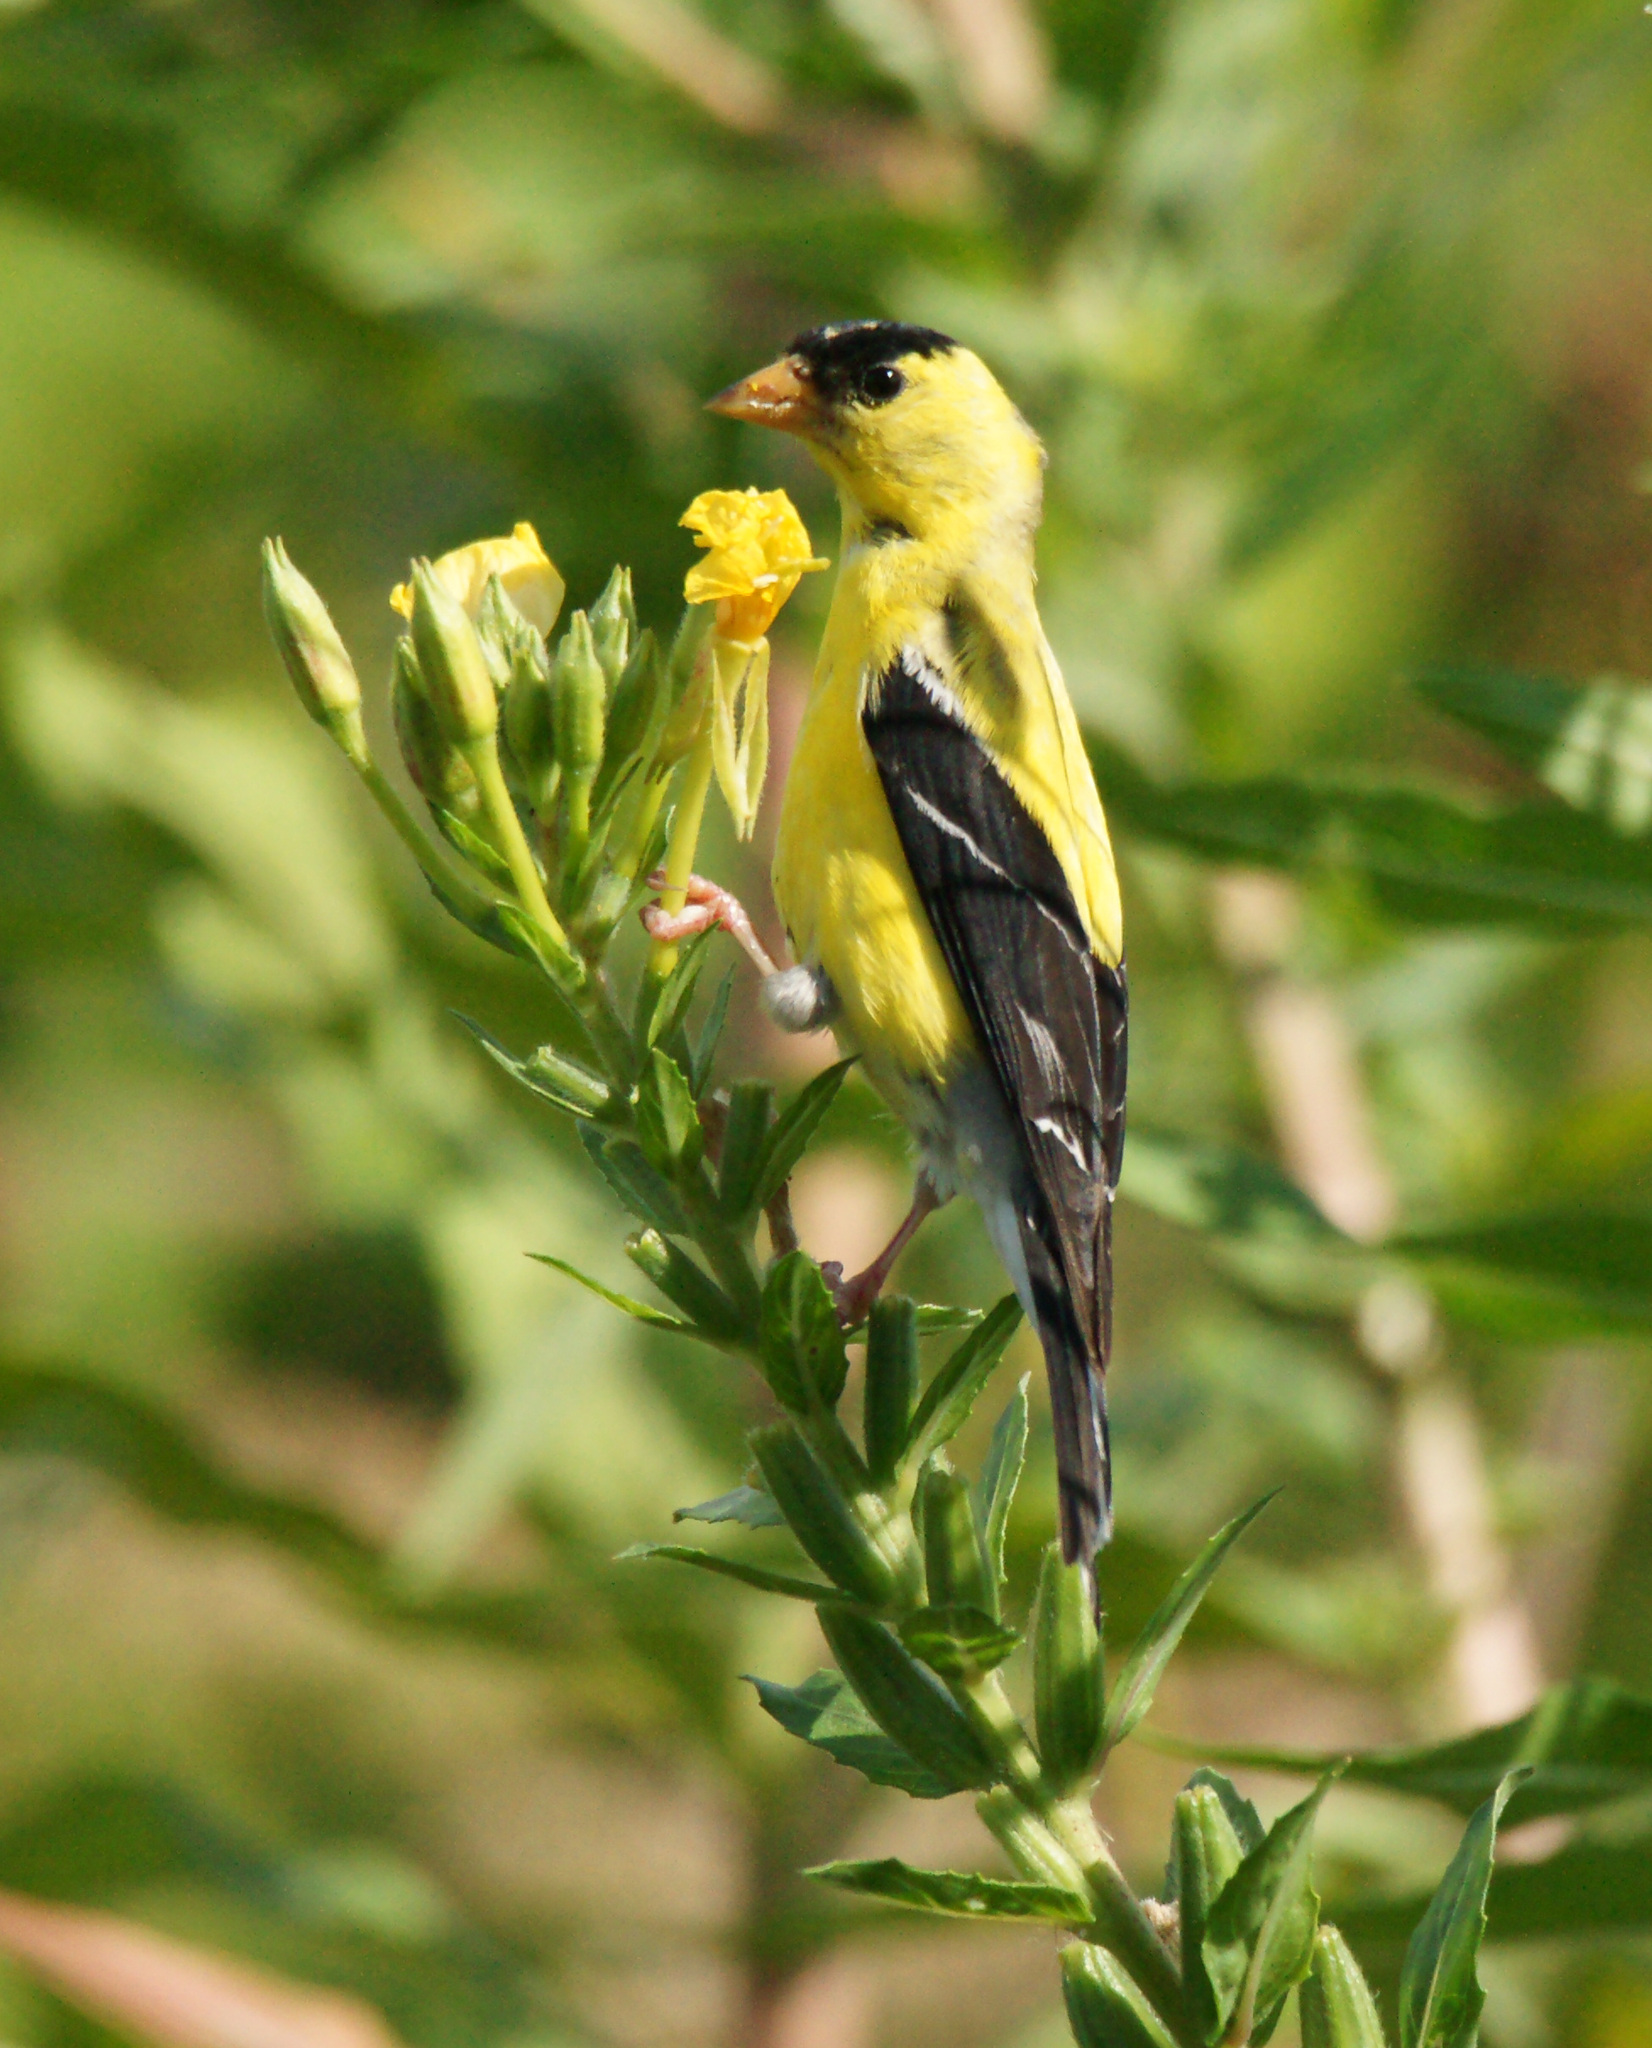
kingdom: Animalia
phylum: Chordata
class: Aves
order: Passeriformes
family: Fringillidae
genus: Spinus
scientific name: Spinus tristis
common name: American goldfinch
